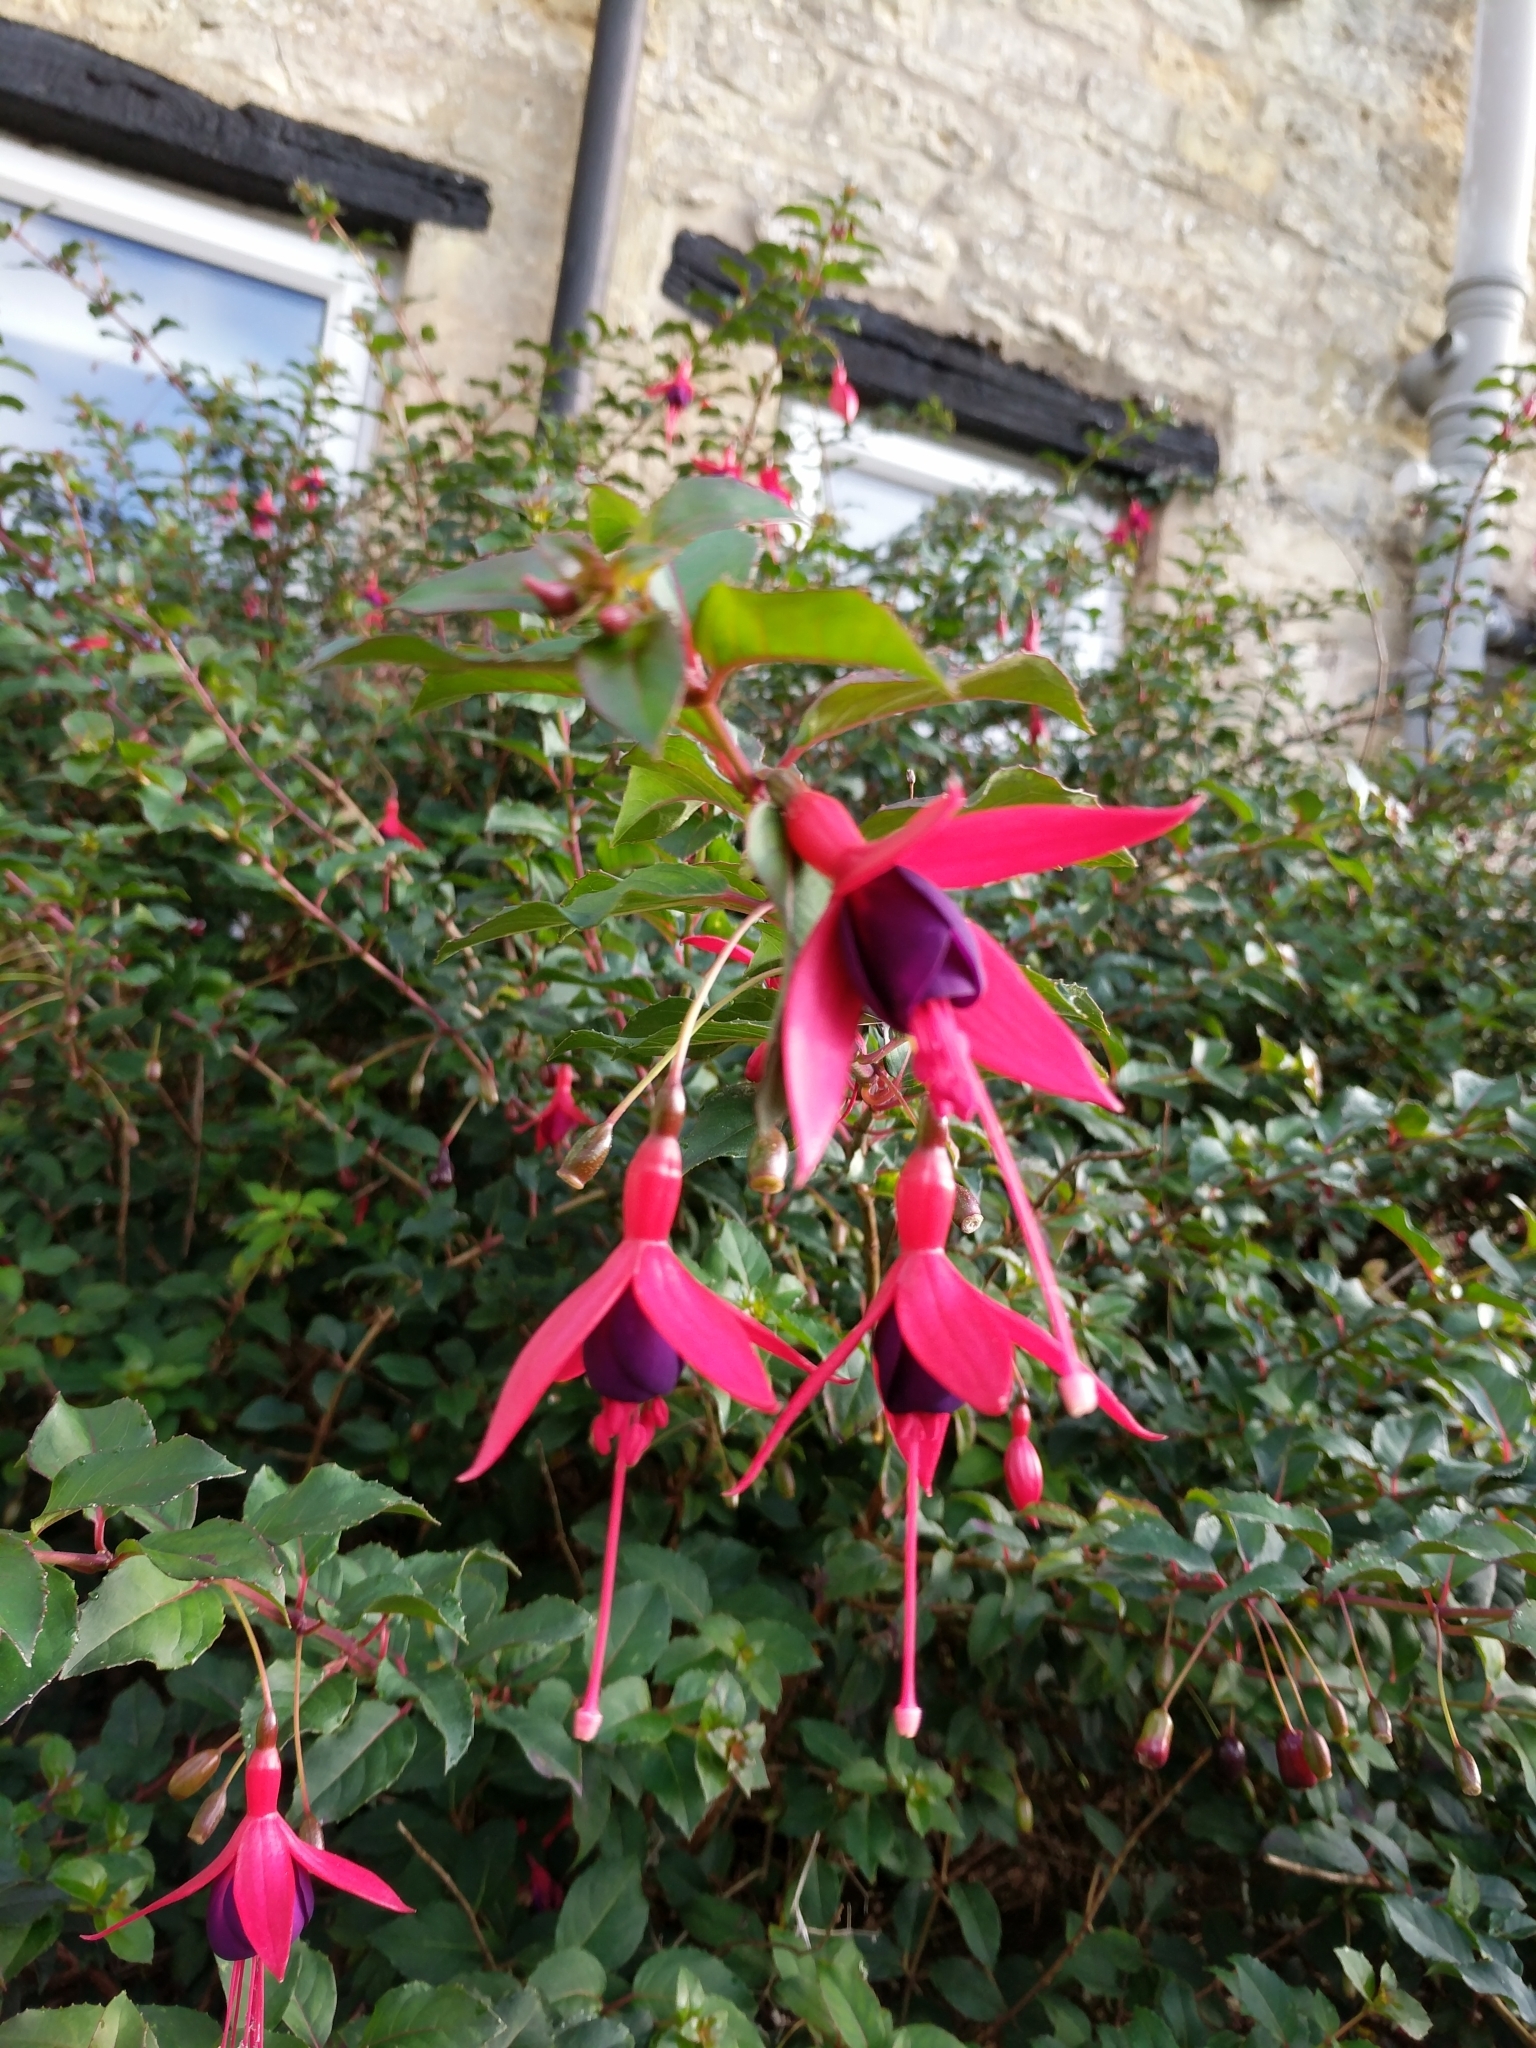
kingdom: Plantae
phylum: Tracheophyta
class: Magnoliopsida
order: Myrtales
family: Onagraceae
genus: Fuchsia
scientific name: Fuchsia magellanica
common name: Hardy fuchsia
